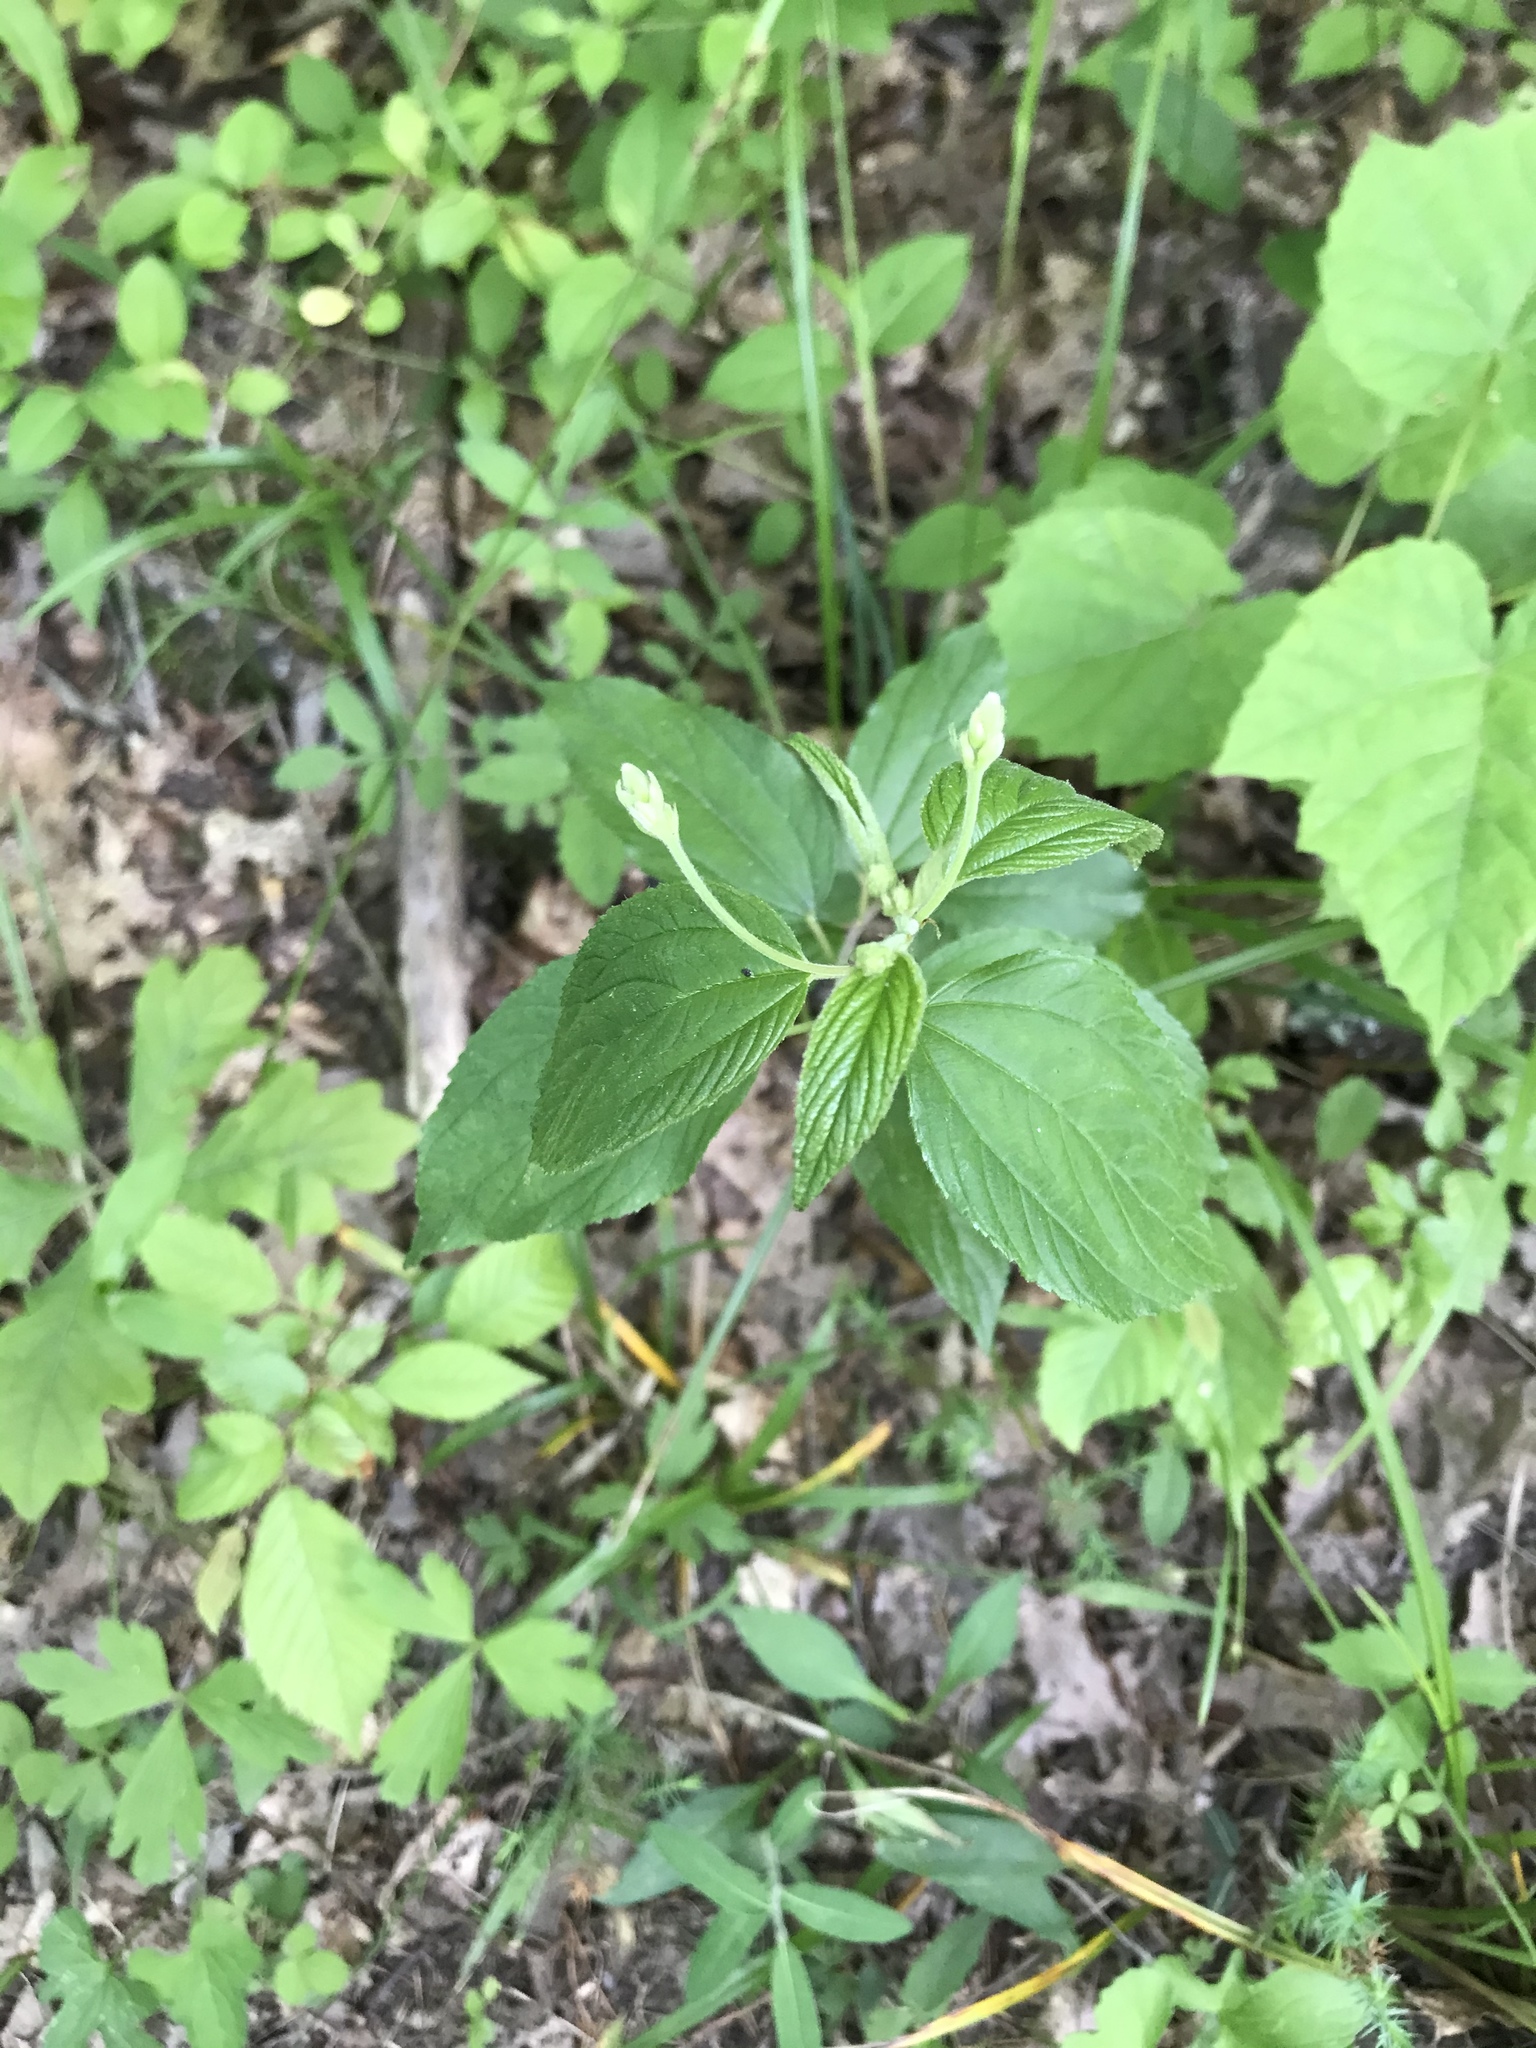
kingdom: Plantae
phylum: Tracheophyta
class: Magnoliopsida
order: Rosales
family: Rhamnaceae
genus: Ceanothus
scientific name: Ceanothus americanus
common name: Redroot
